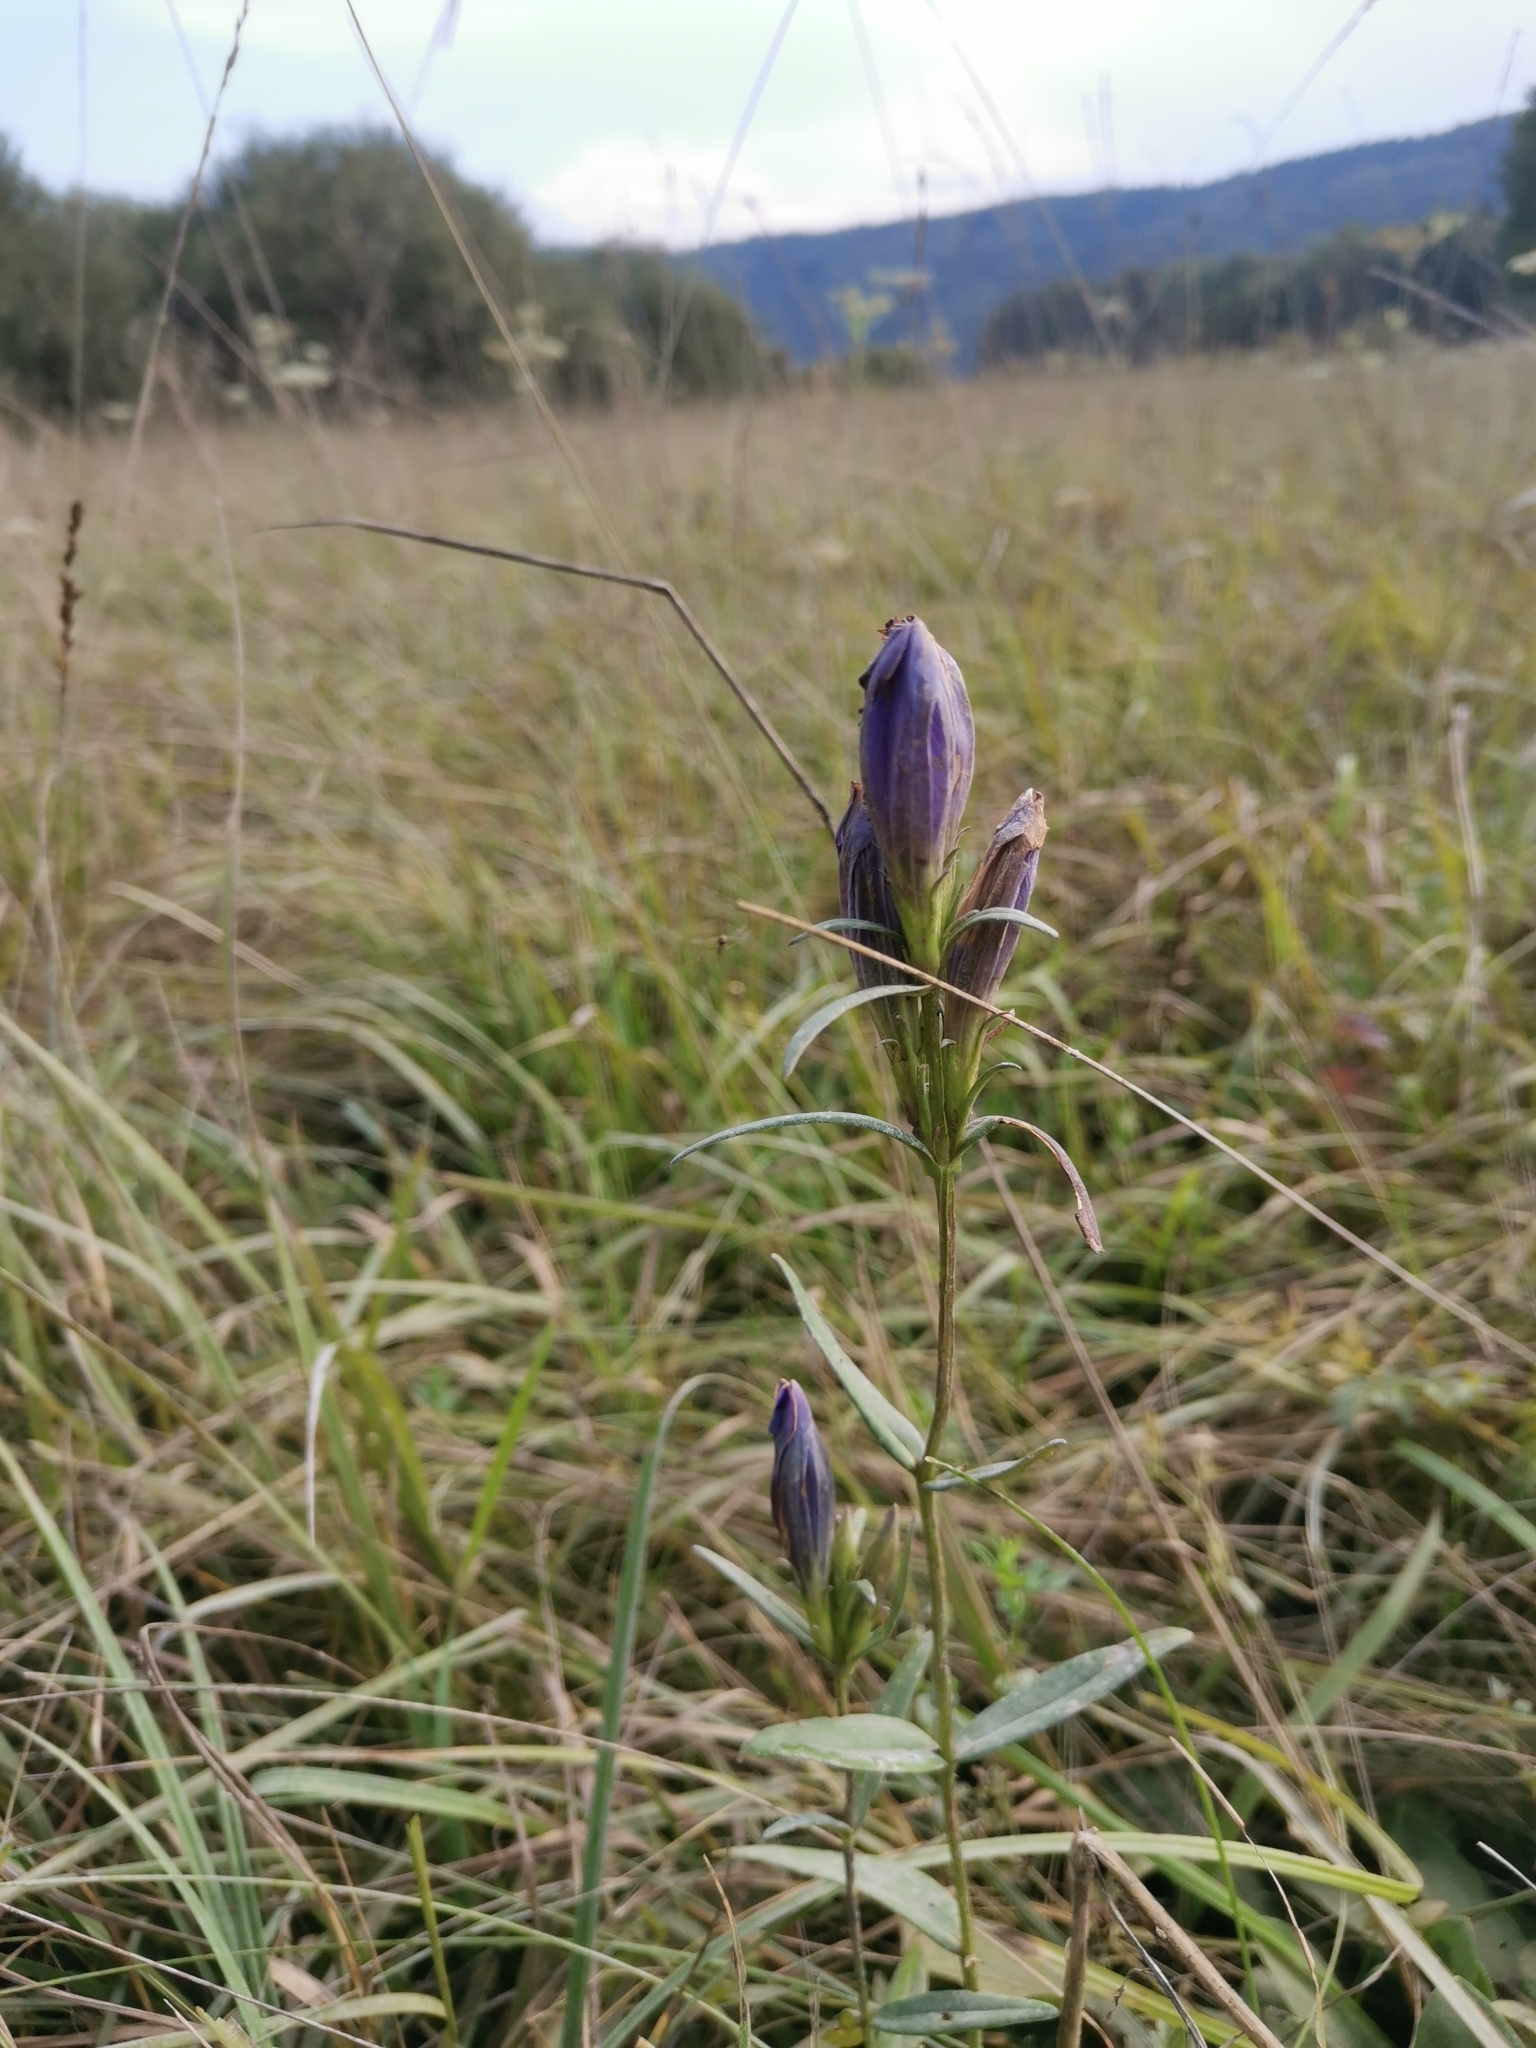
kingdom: Plantae
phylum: Tracheophyta
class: Magnoliopsida
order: Gentianales
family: Gentianaceae
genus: Gentiana
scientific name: Gentiana pneumonanthe
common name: Marsh gentian
